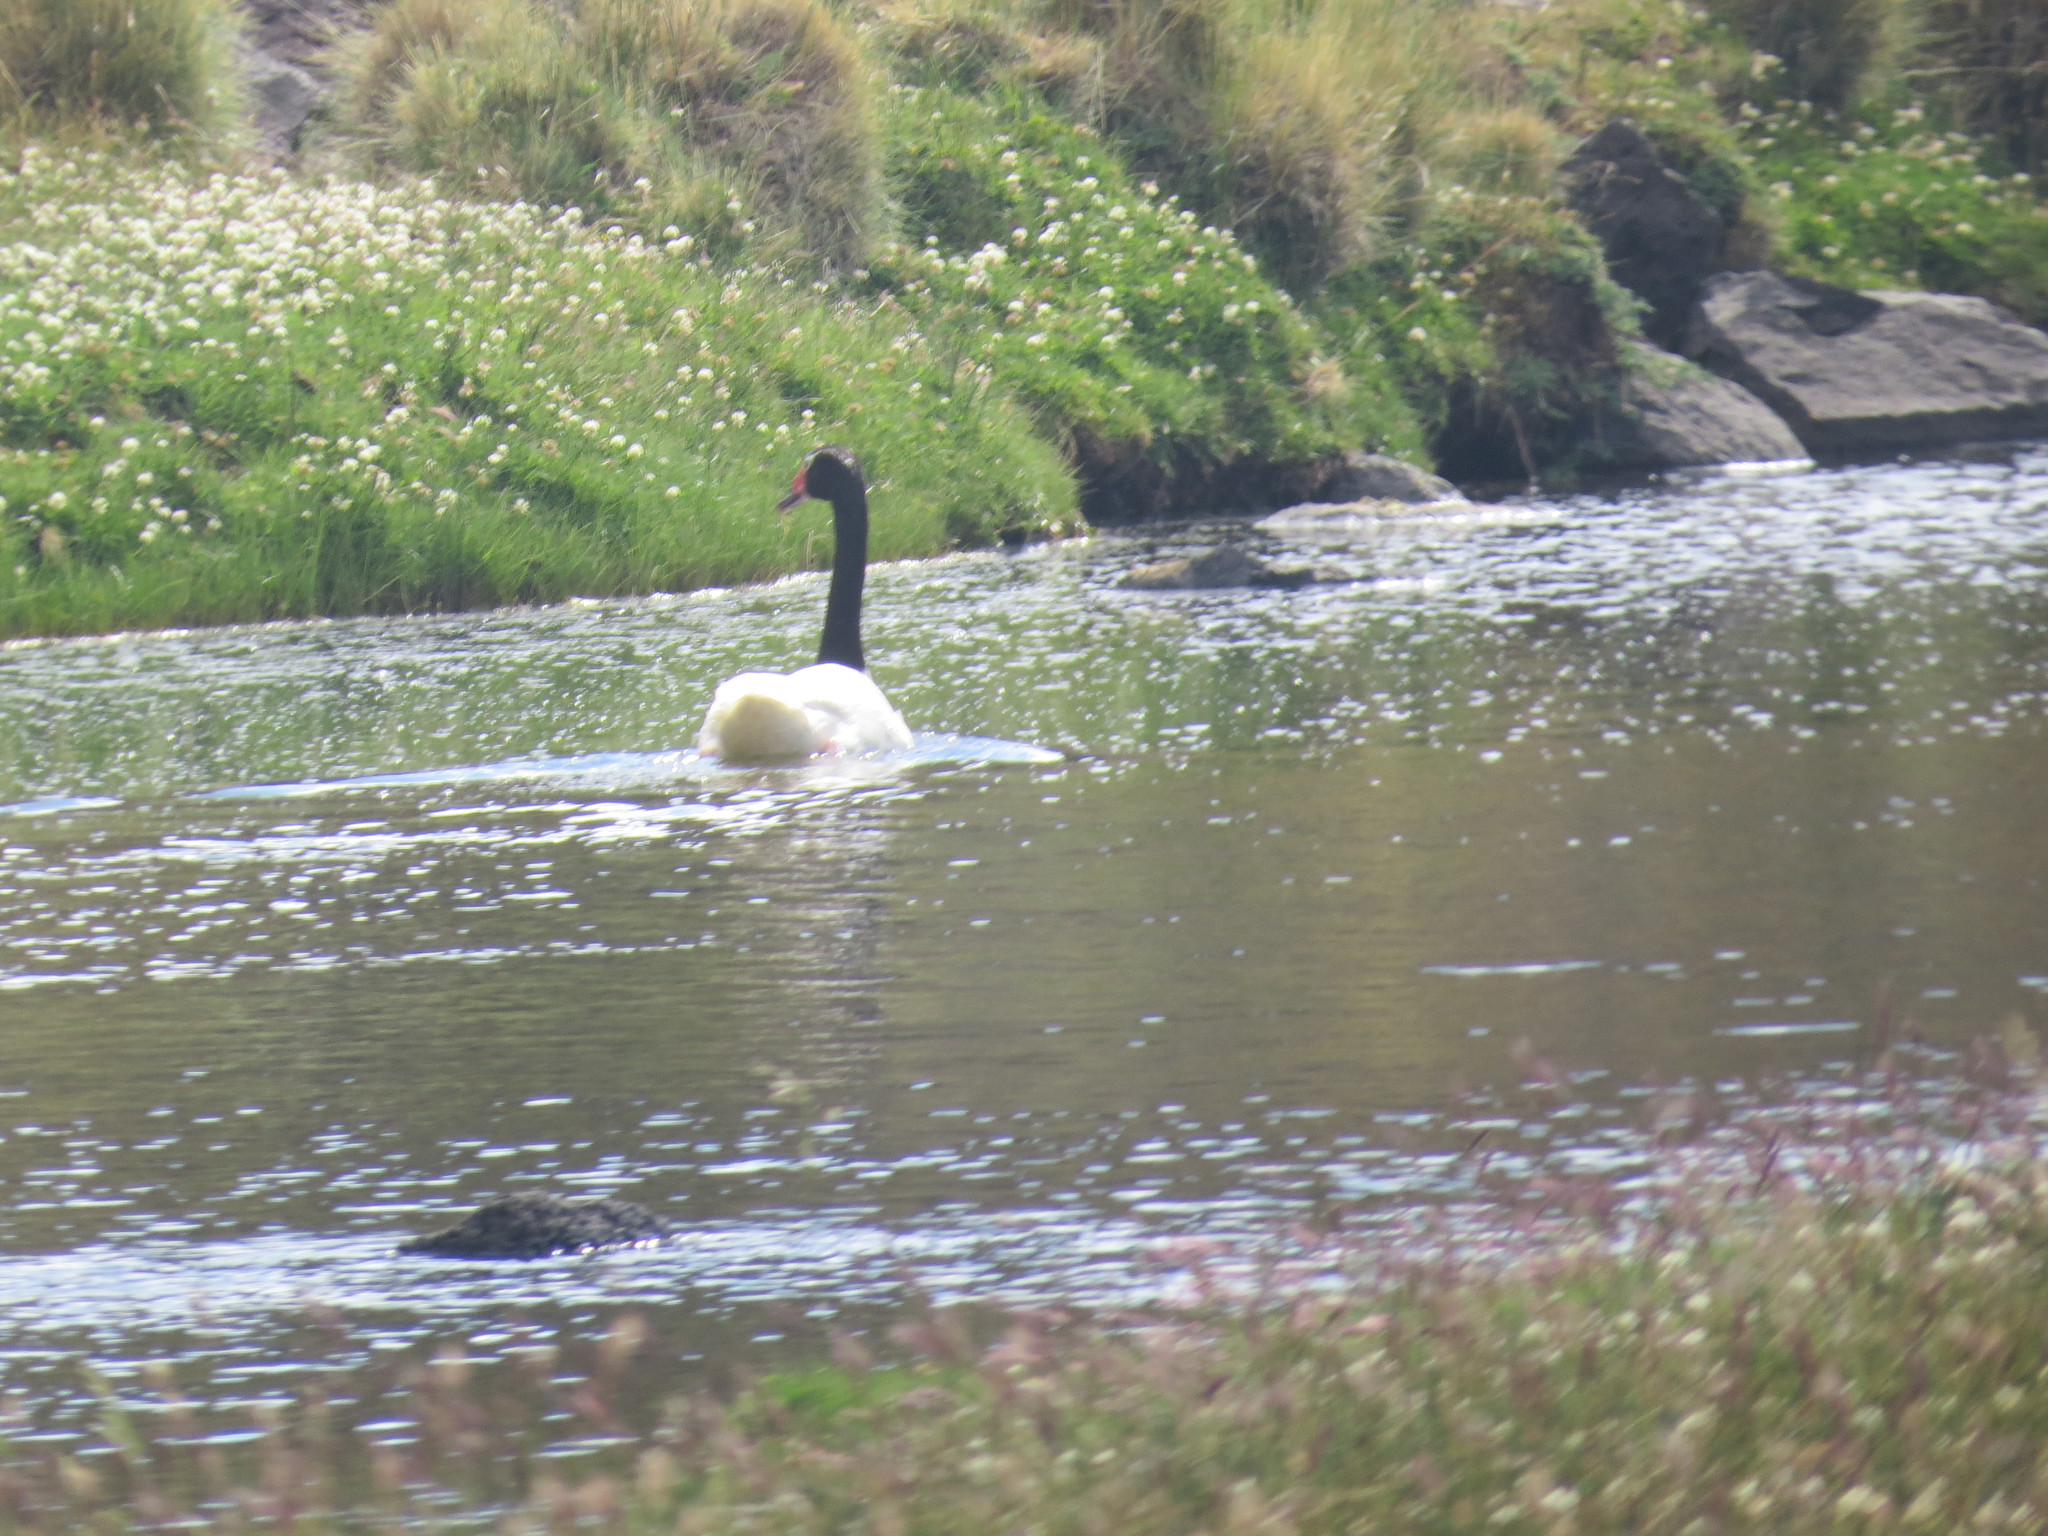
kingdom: Animalia
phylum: Chordata
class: Aves
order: Anseriformes
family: Anatidae
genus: Cygnus
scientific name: Cygnus melancoryphus
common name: Black-necked swan
